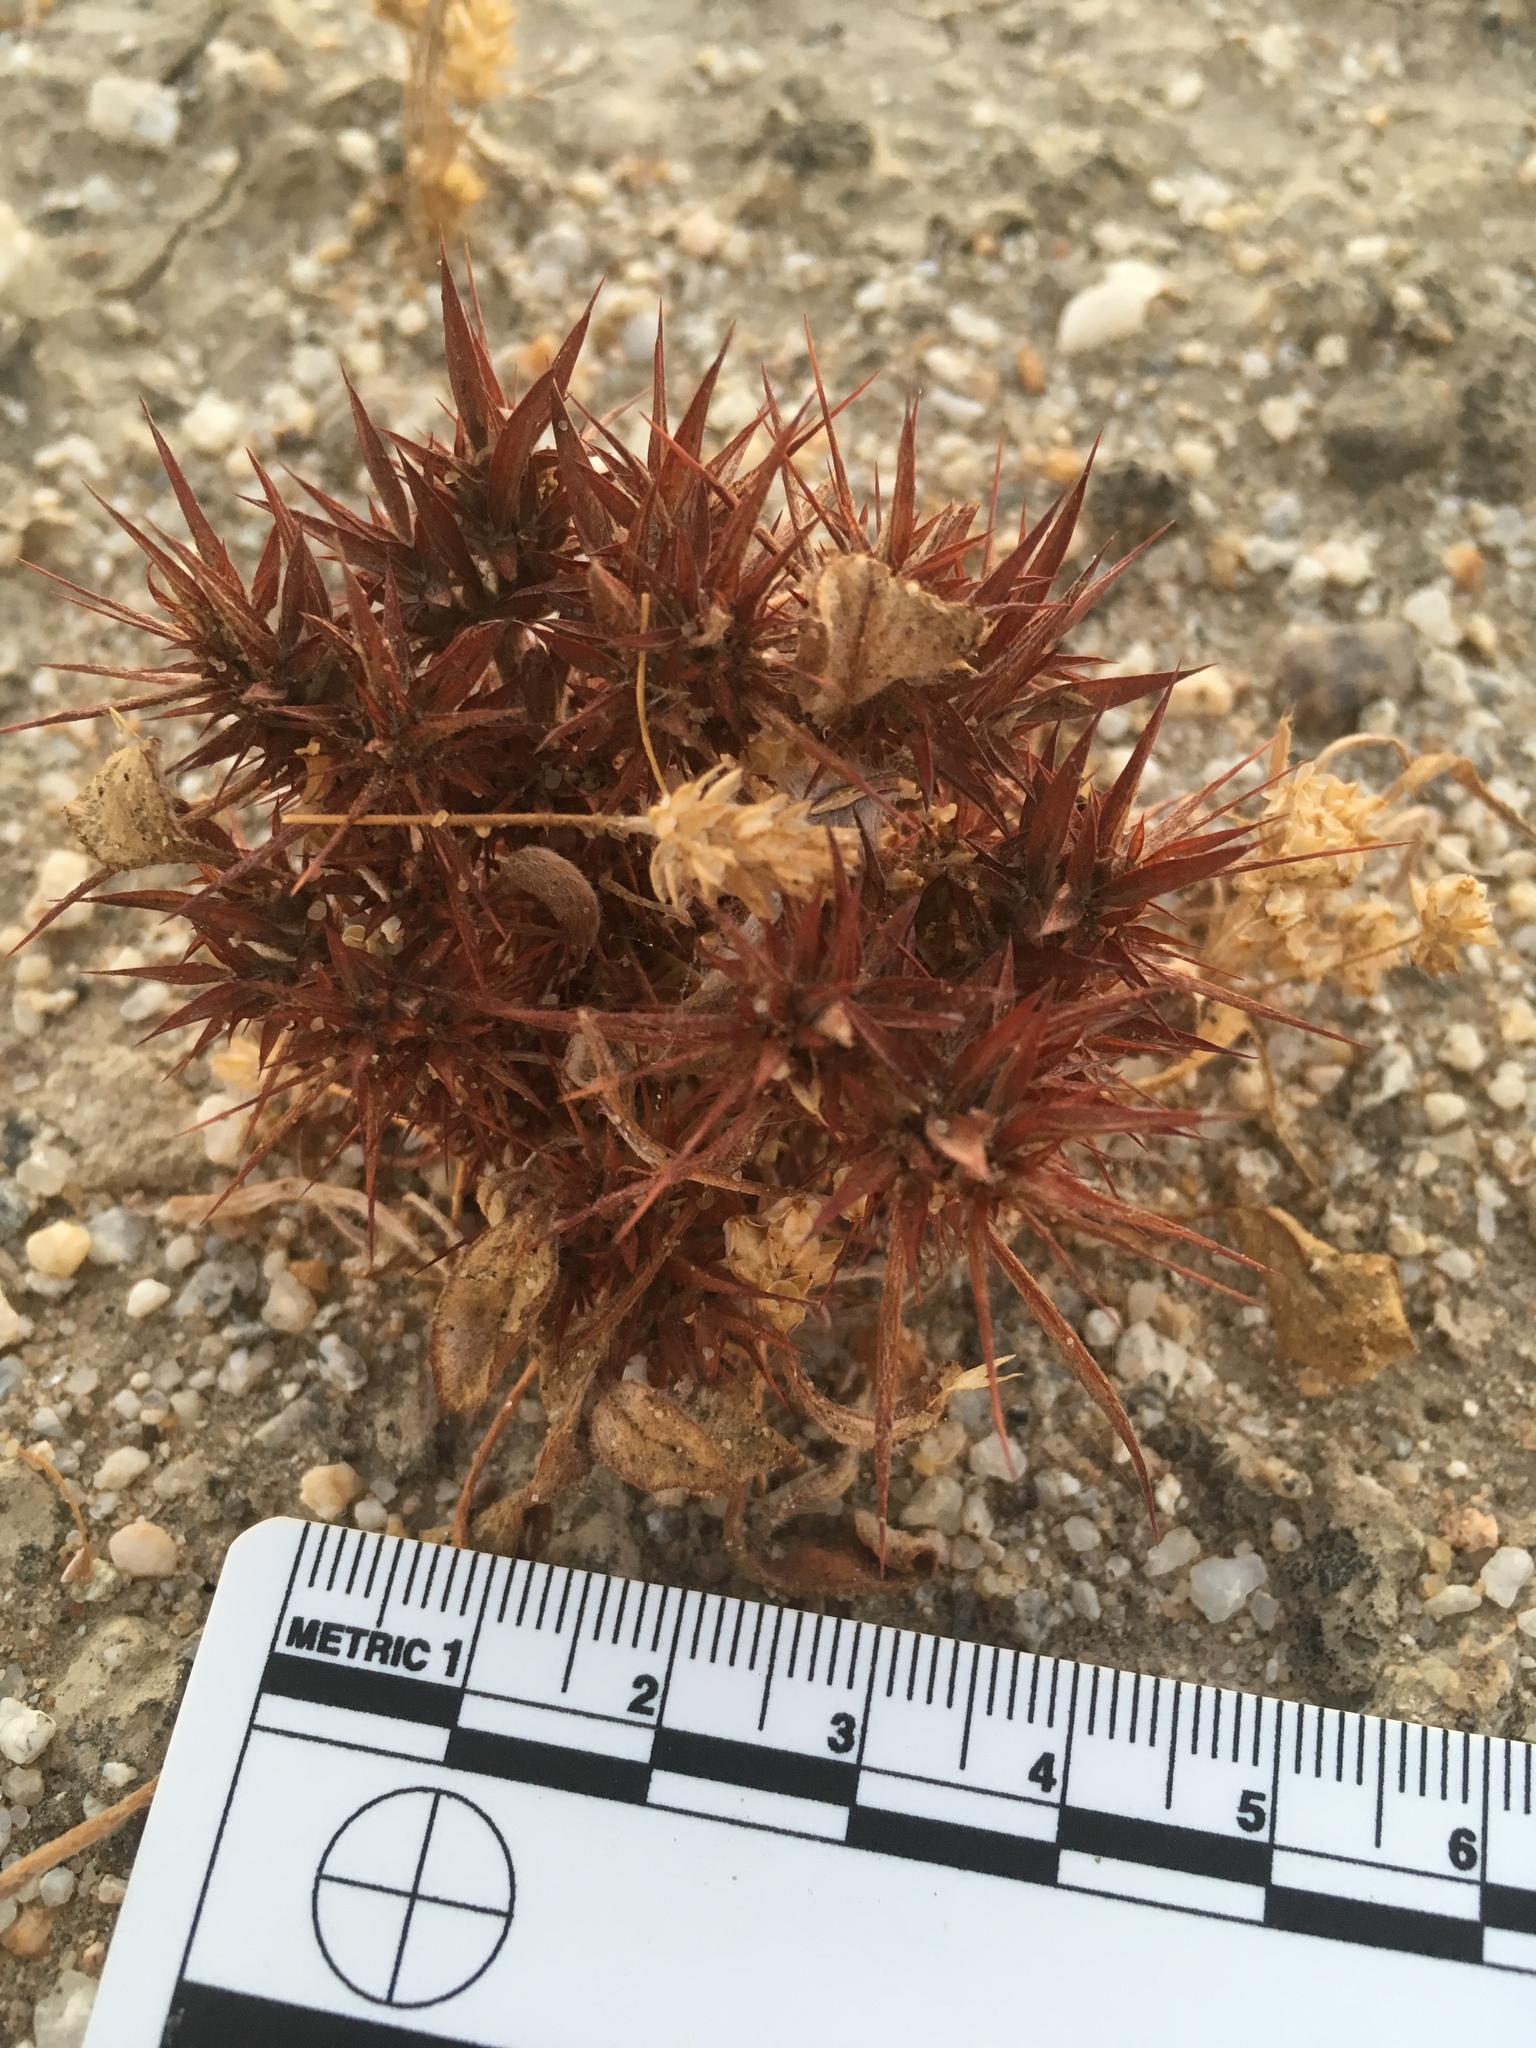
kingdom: Plantae
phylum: Tracheophyta
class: Magnoliopsida
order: Caryophyllales
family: Polygonaceae
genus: Chorizanthe
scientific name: Chorizanthe rigida
